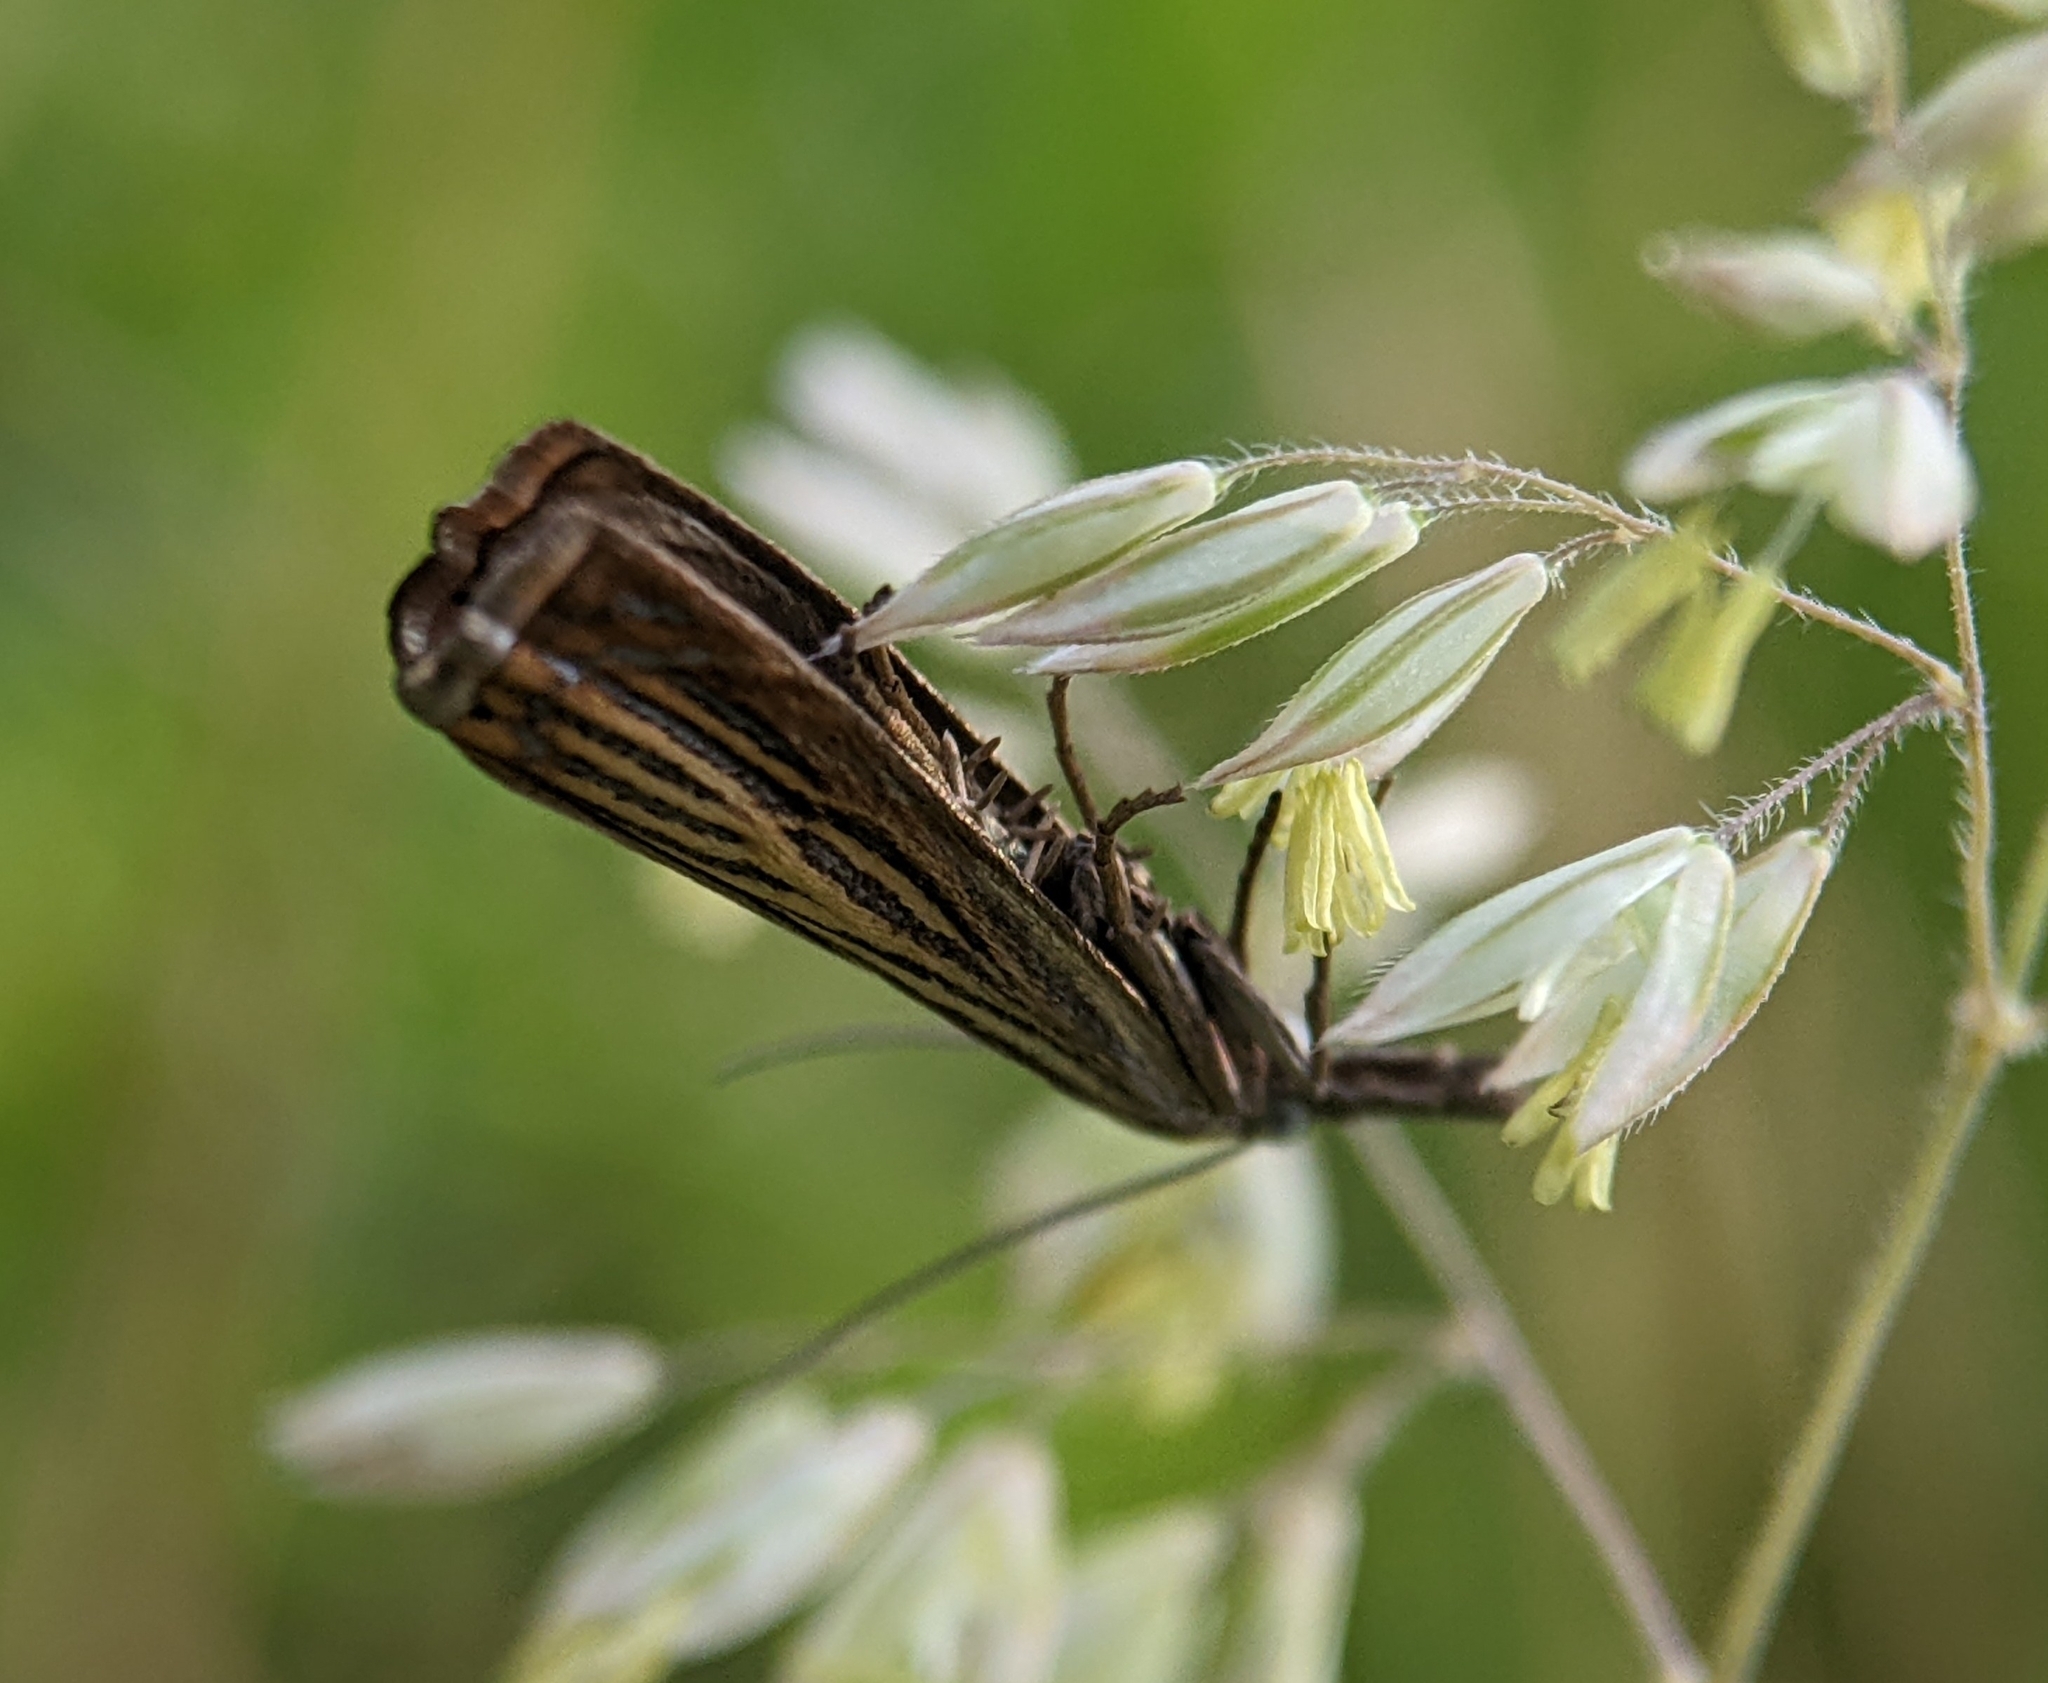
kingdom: Animalia
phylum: Arthropoda
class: Insecta
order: Lepidoptera
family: Crambidae
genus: Chrysoteuchia
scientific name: Chrysoteuchia culmella
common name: Garden grass-veneer
